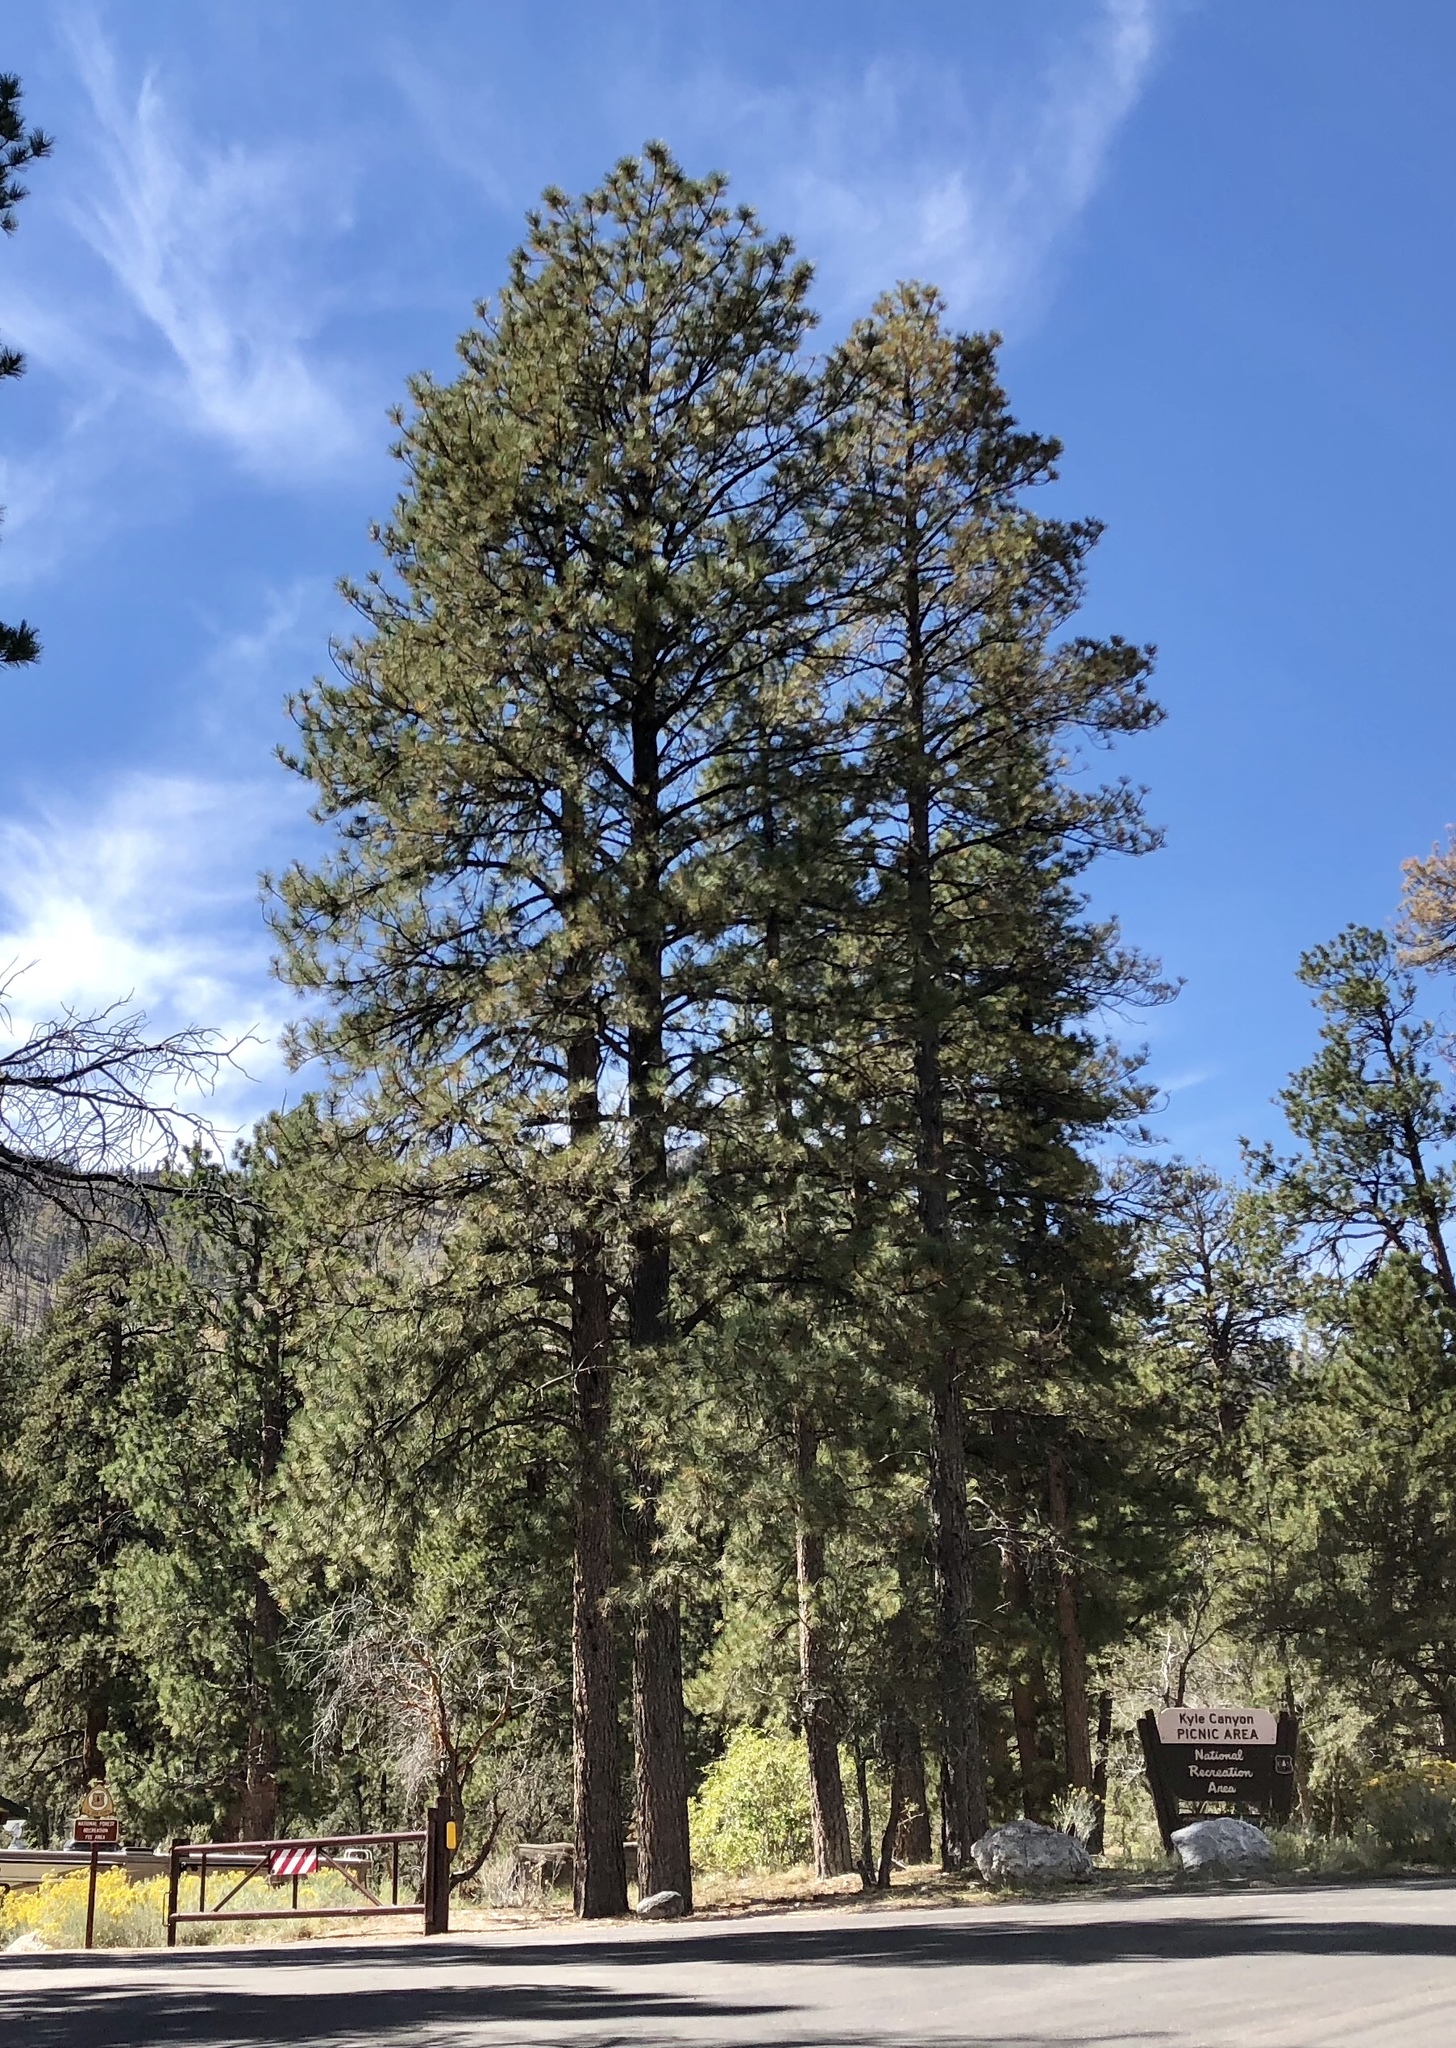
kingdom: Plantae
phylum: Tracheophyta
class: Pinopsida
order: Pinales
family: Pinaceae
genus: Pinus
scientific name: Pinus ponderosa
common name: Western yellow-pine
